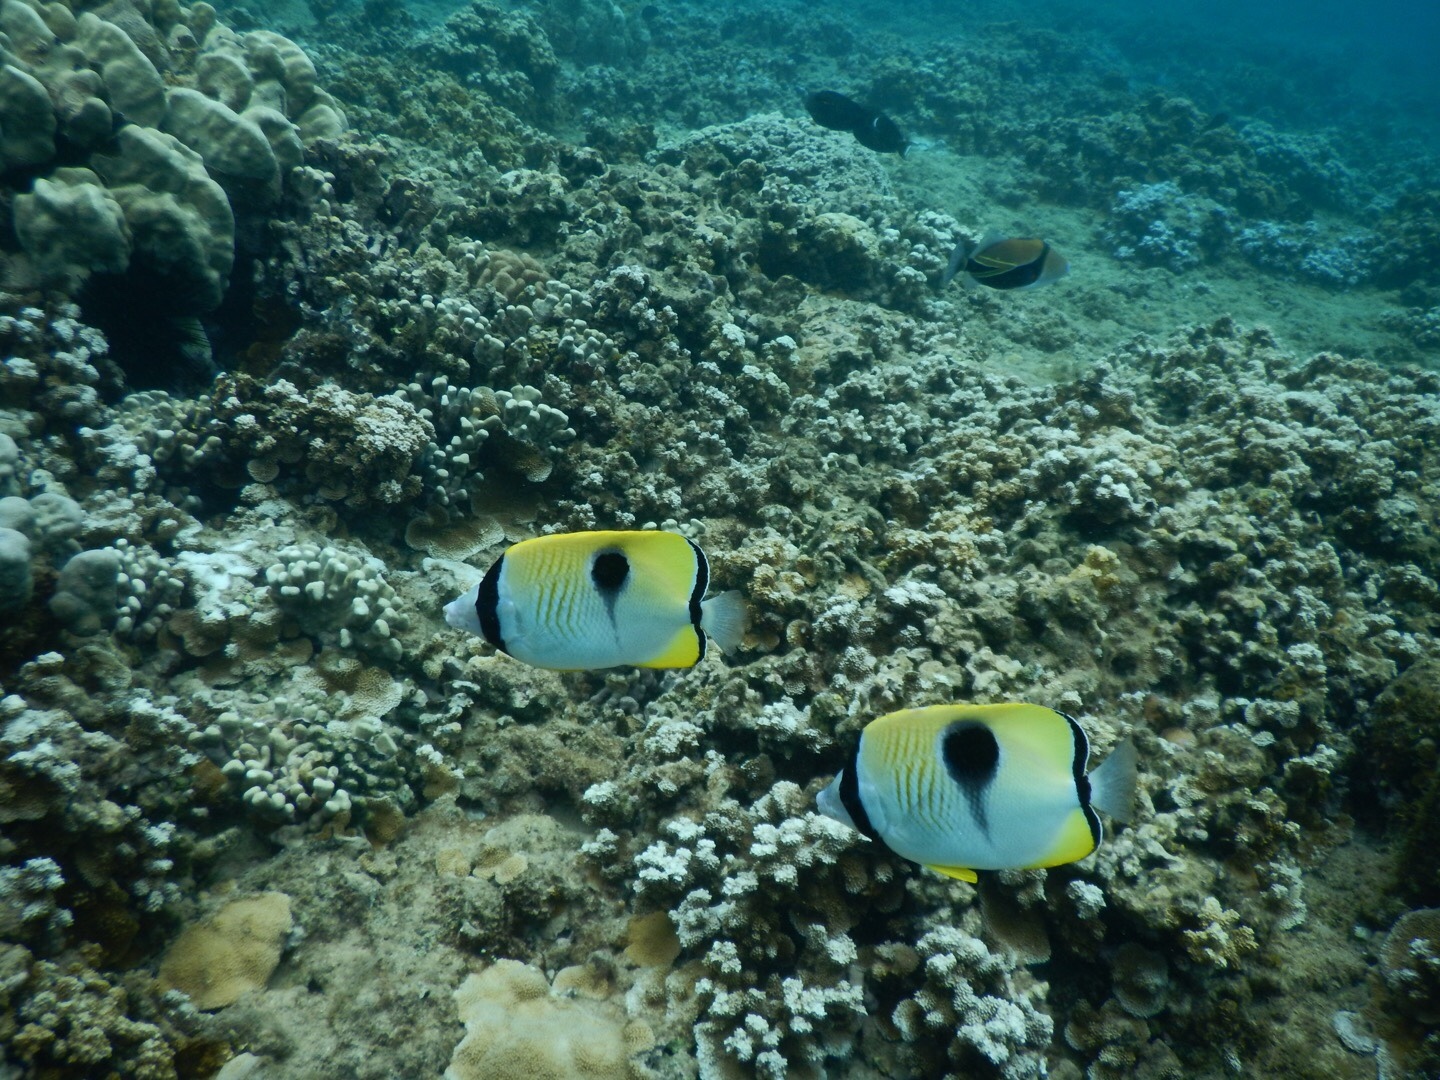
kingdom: Animalia
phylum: Chordata
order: Perciformes
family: Chaetodontidae
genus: Chaetodon
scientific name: Chaetodon unimaculatus
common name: Teardrop butterflyfish
